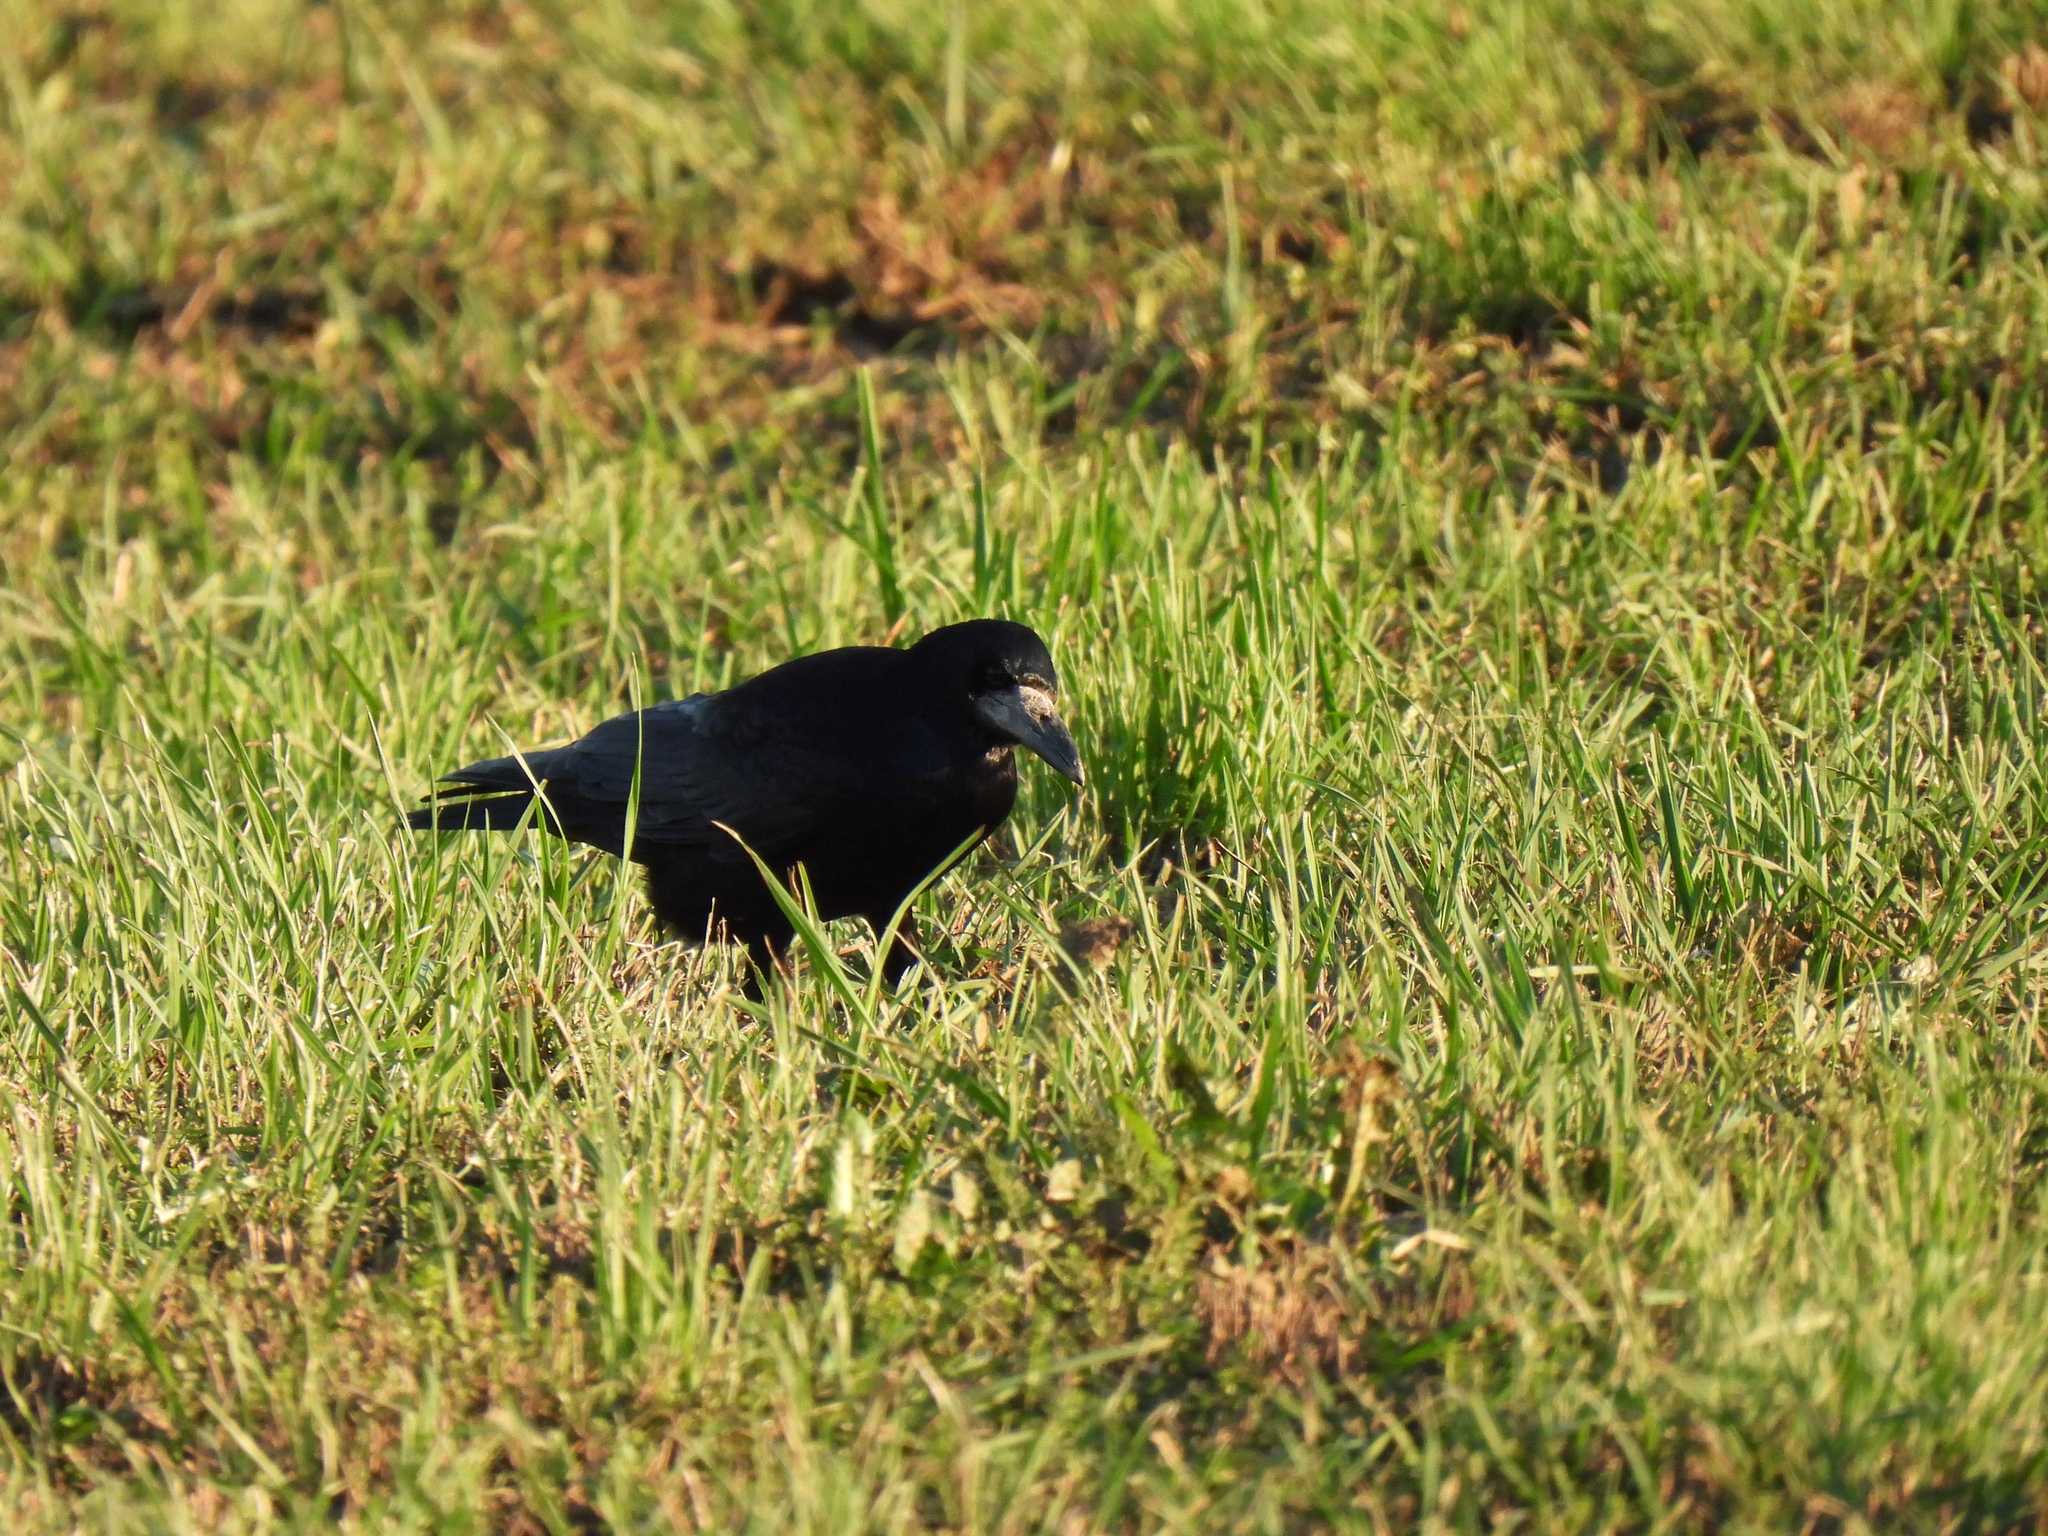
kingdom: Animalia
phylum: Chordata
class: Aves
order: Passeriformes
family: Corvidae
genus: Corvus
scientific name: Corvus frugilegus
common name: Rook
